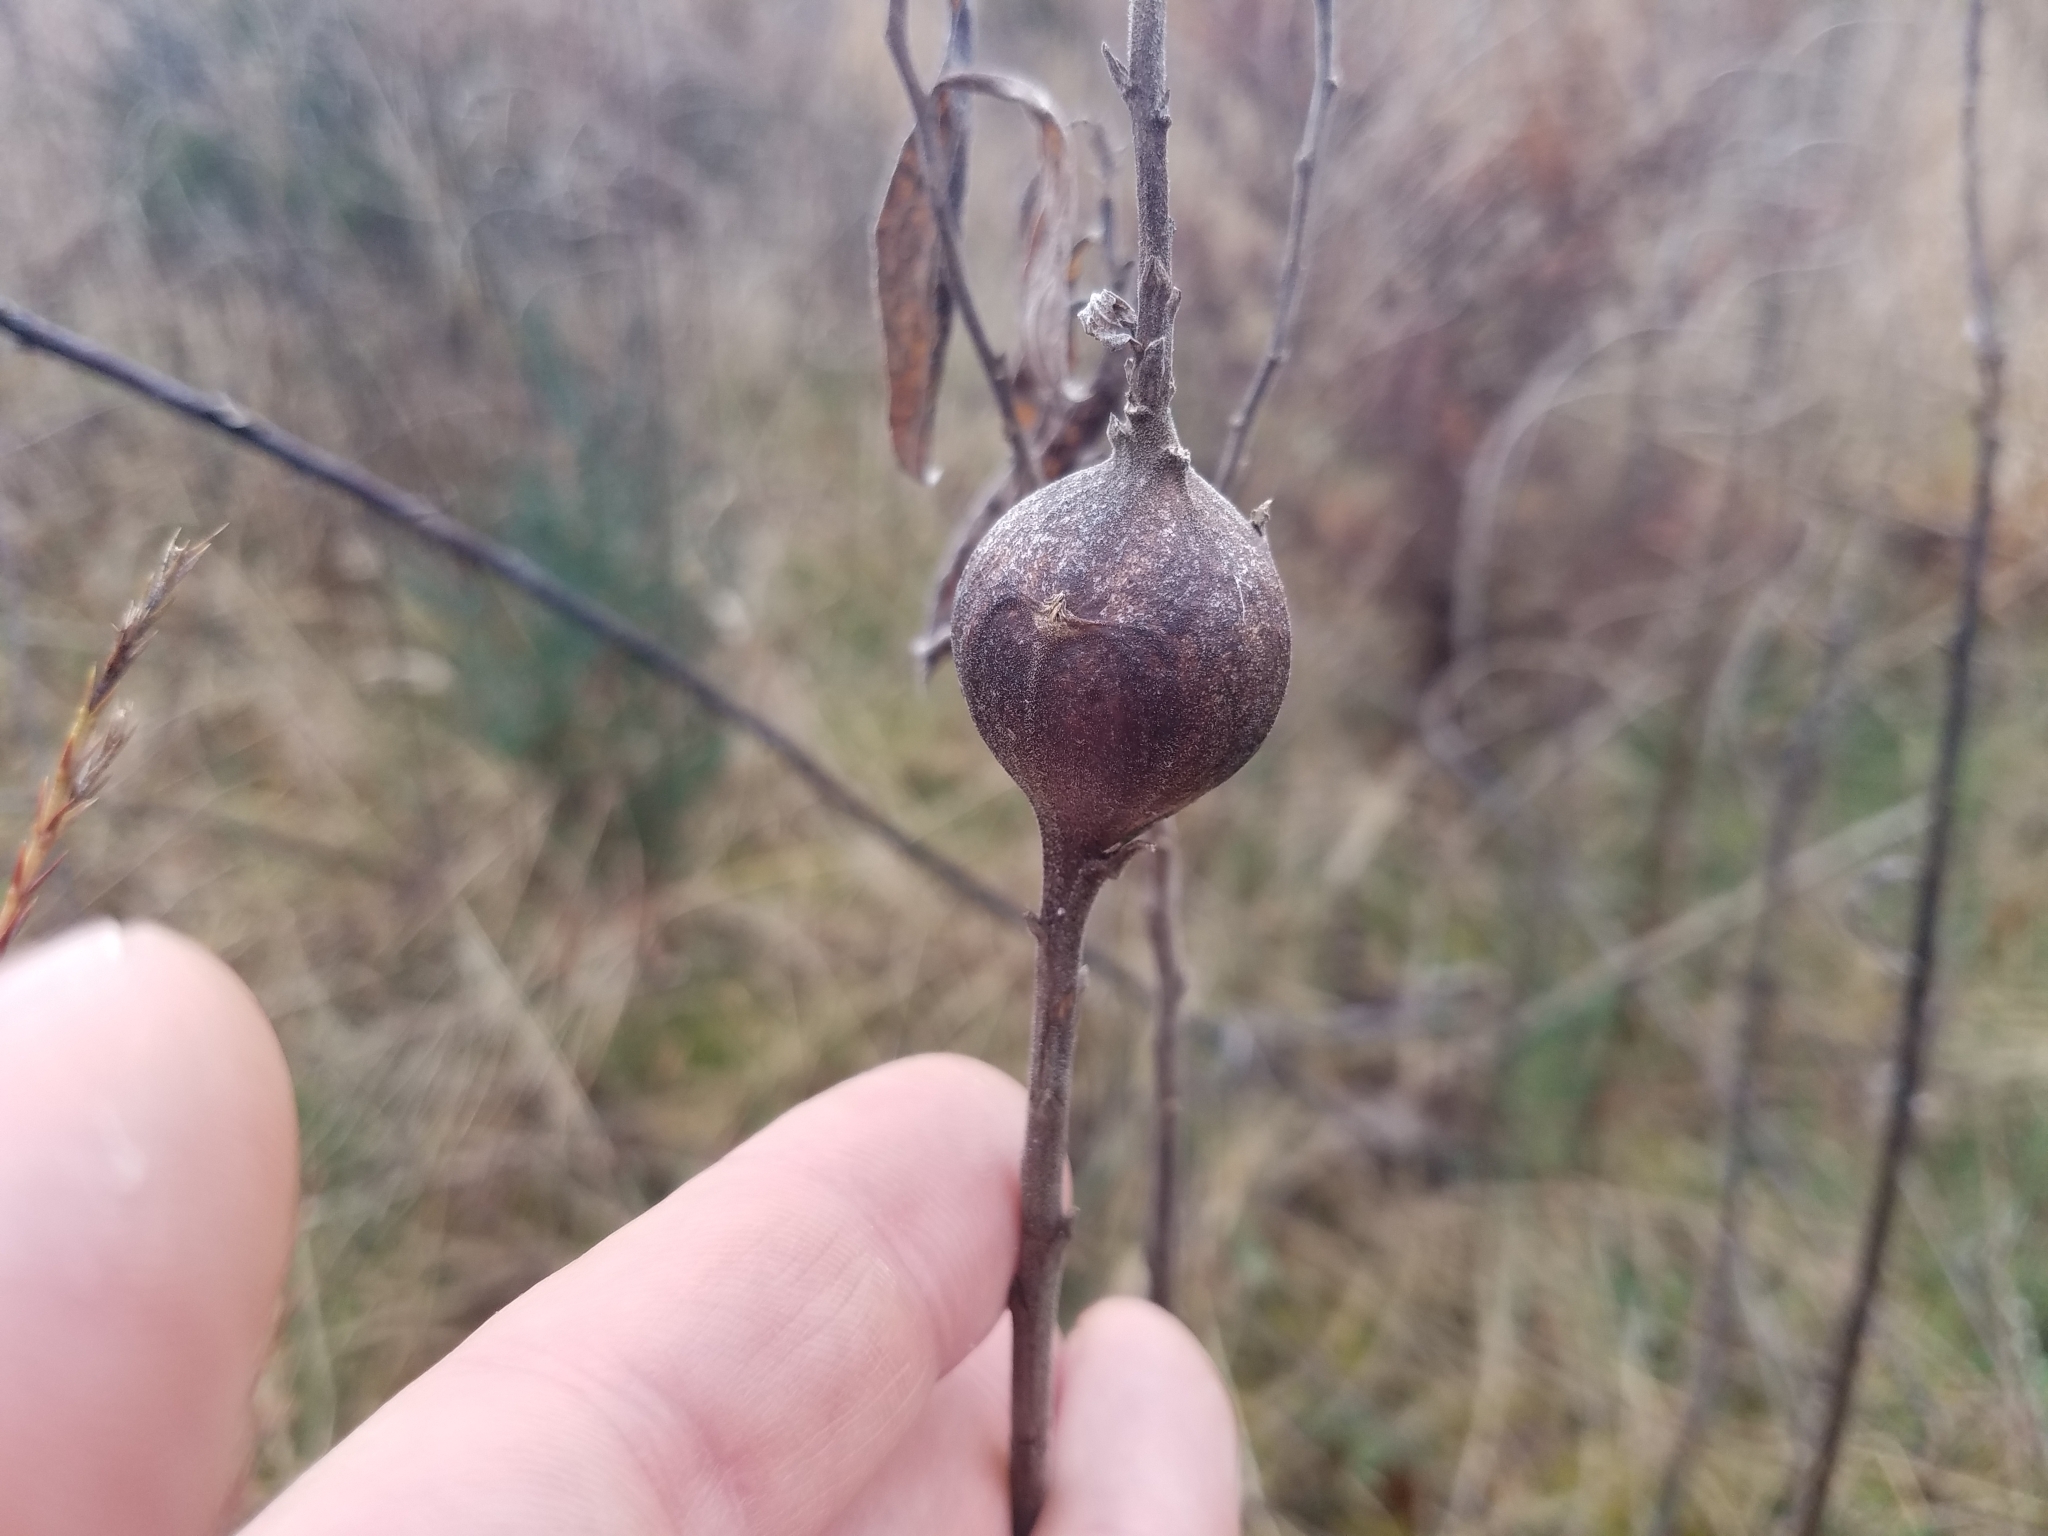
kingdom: Animalia
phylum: Arthropoda
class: Insecta
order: Diptera
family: Tephritidae
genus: Eurosta
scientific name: Eurosta solidaginis
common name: Goldenrod gall fly
